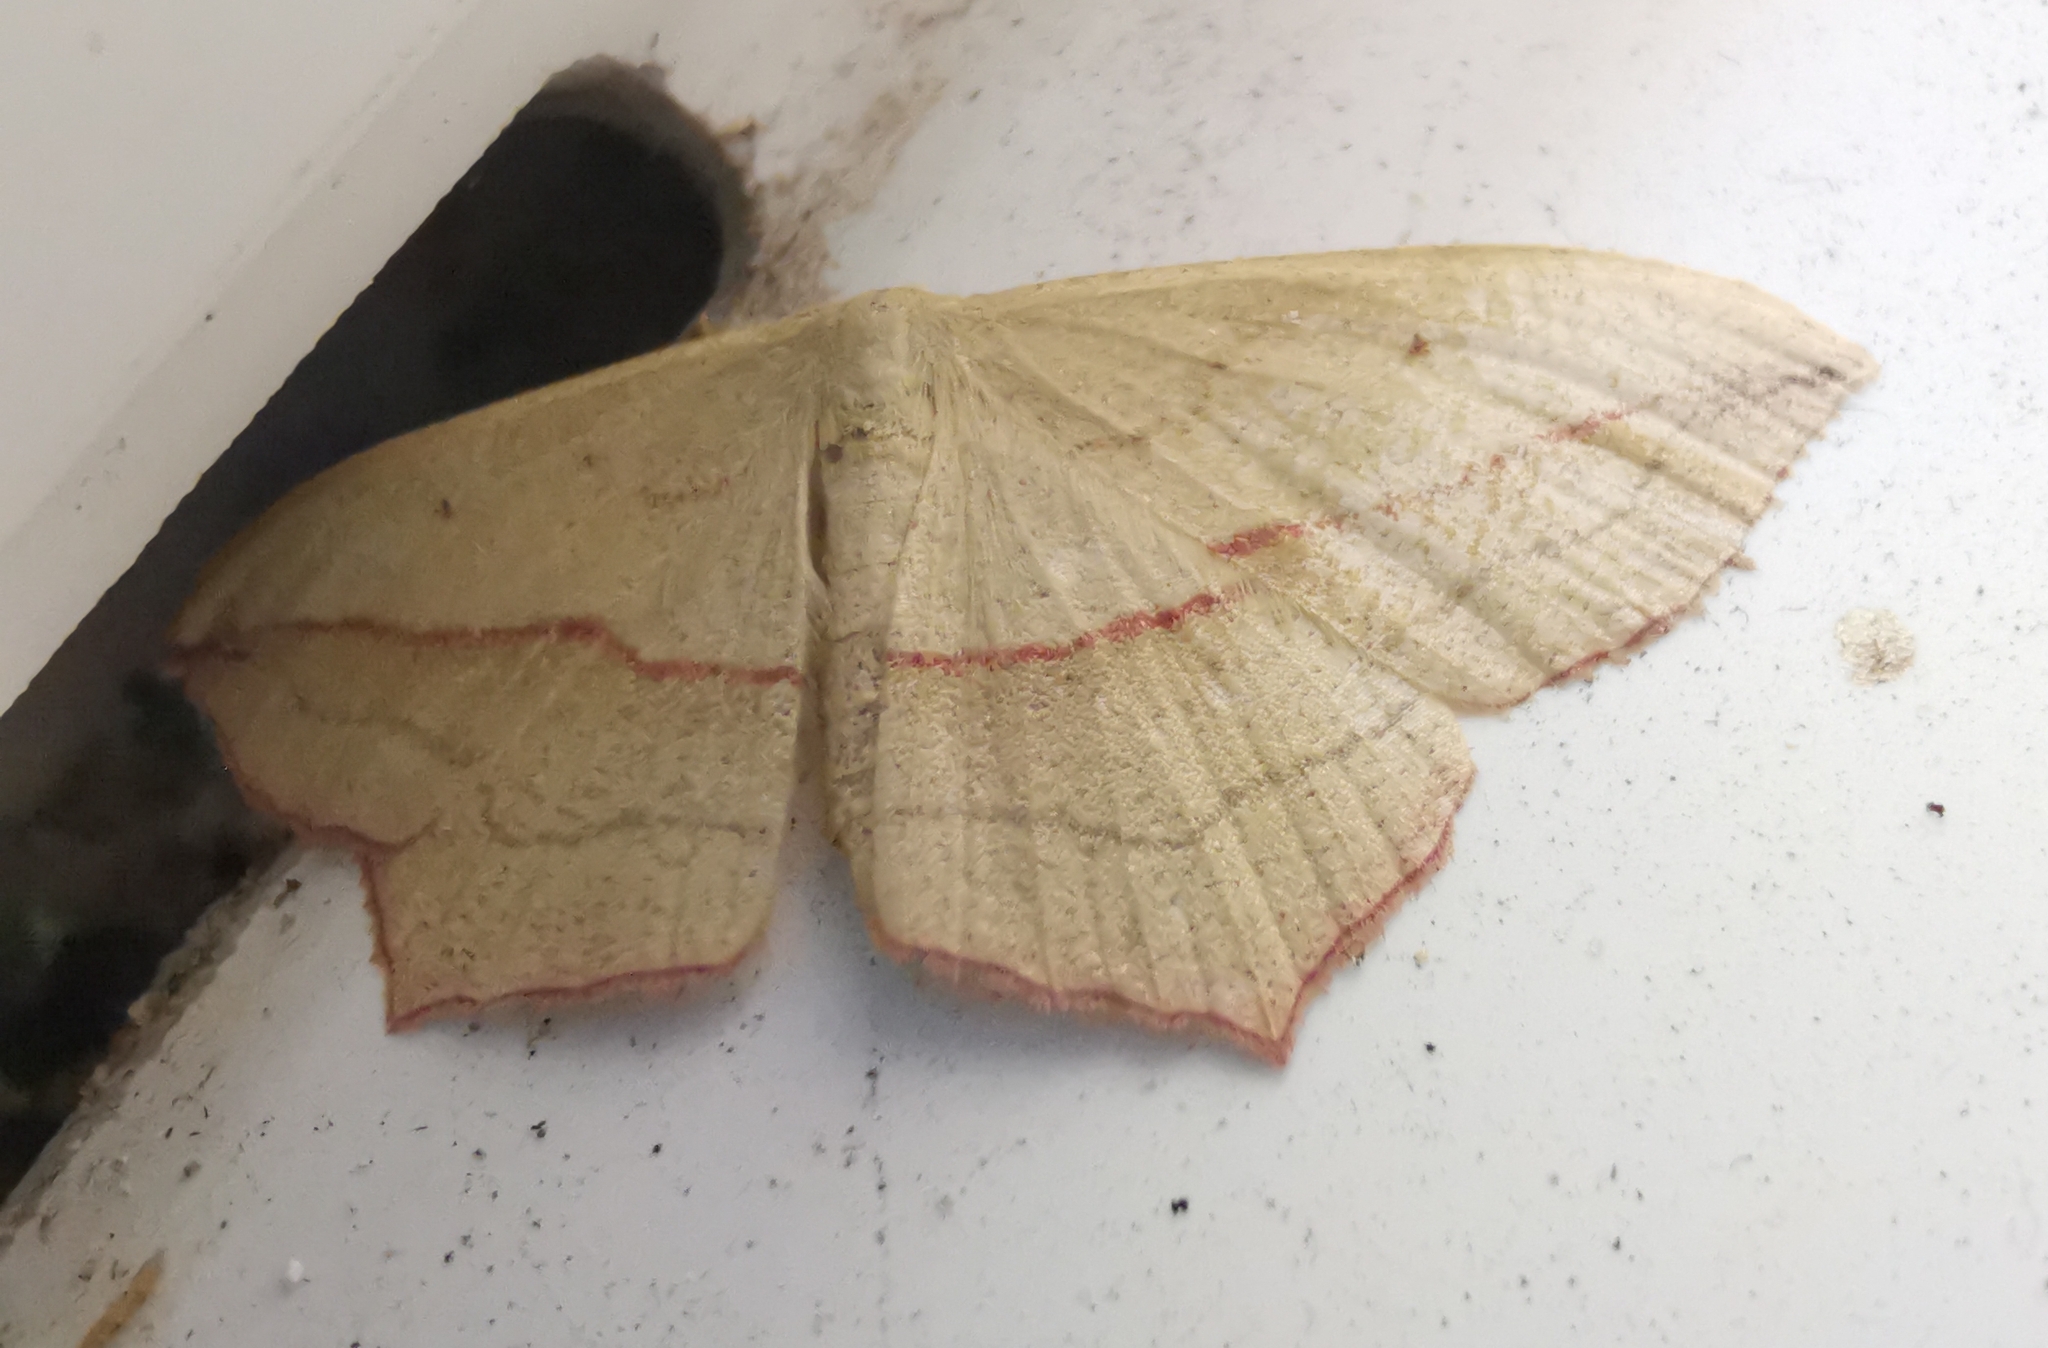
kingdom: Animalia
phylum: Arthropoda
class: Insecta
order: Lepidoptera
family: Geometridae
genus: Timandra
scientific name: Timandra comae
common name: Blood-vein
